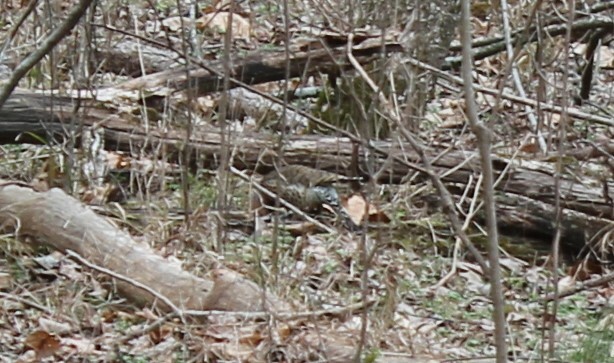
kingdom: Animalia
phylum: Chordata
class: Aves
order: Piciformes
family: Picidae
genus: Colaptes
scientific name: Colaptes auratus
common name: Northern flicker
